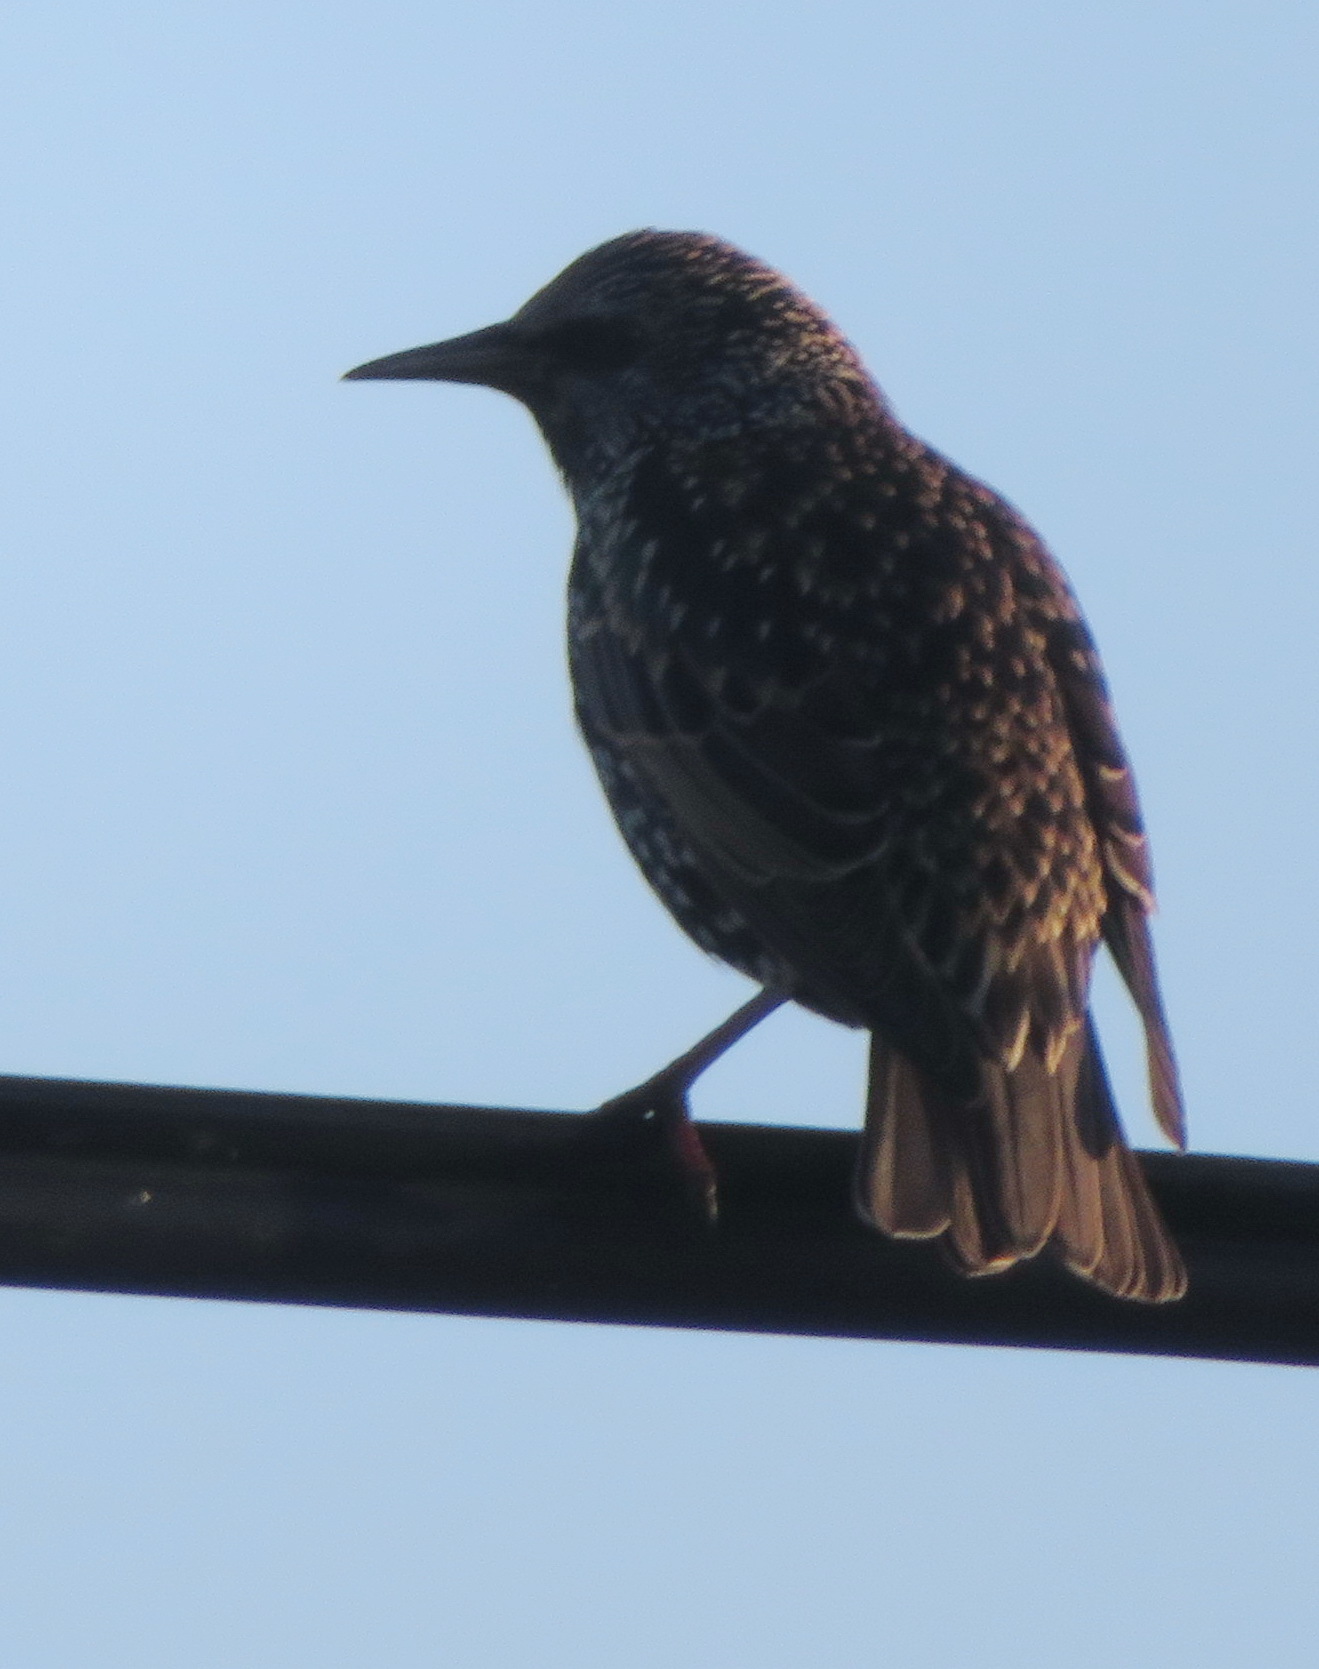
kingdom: Animalia
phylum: Chordata
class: Aves
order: Passeriformes
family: Sturnidae
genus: Sturnus
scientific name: Sturnus vulgaris
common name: Common starling
